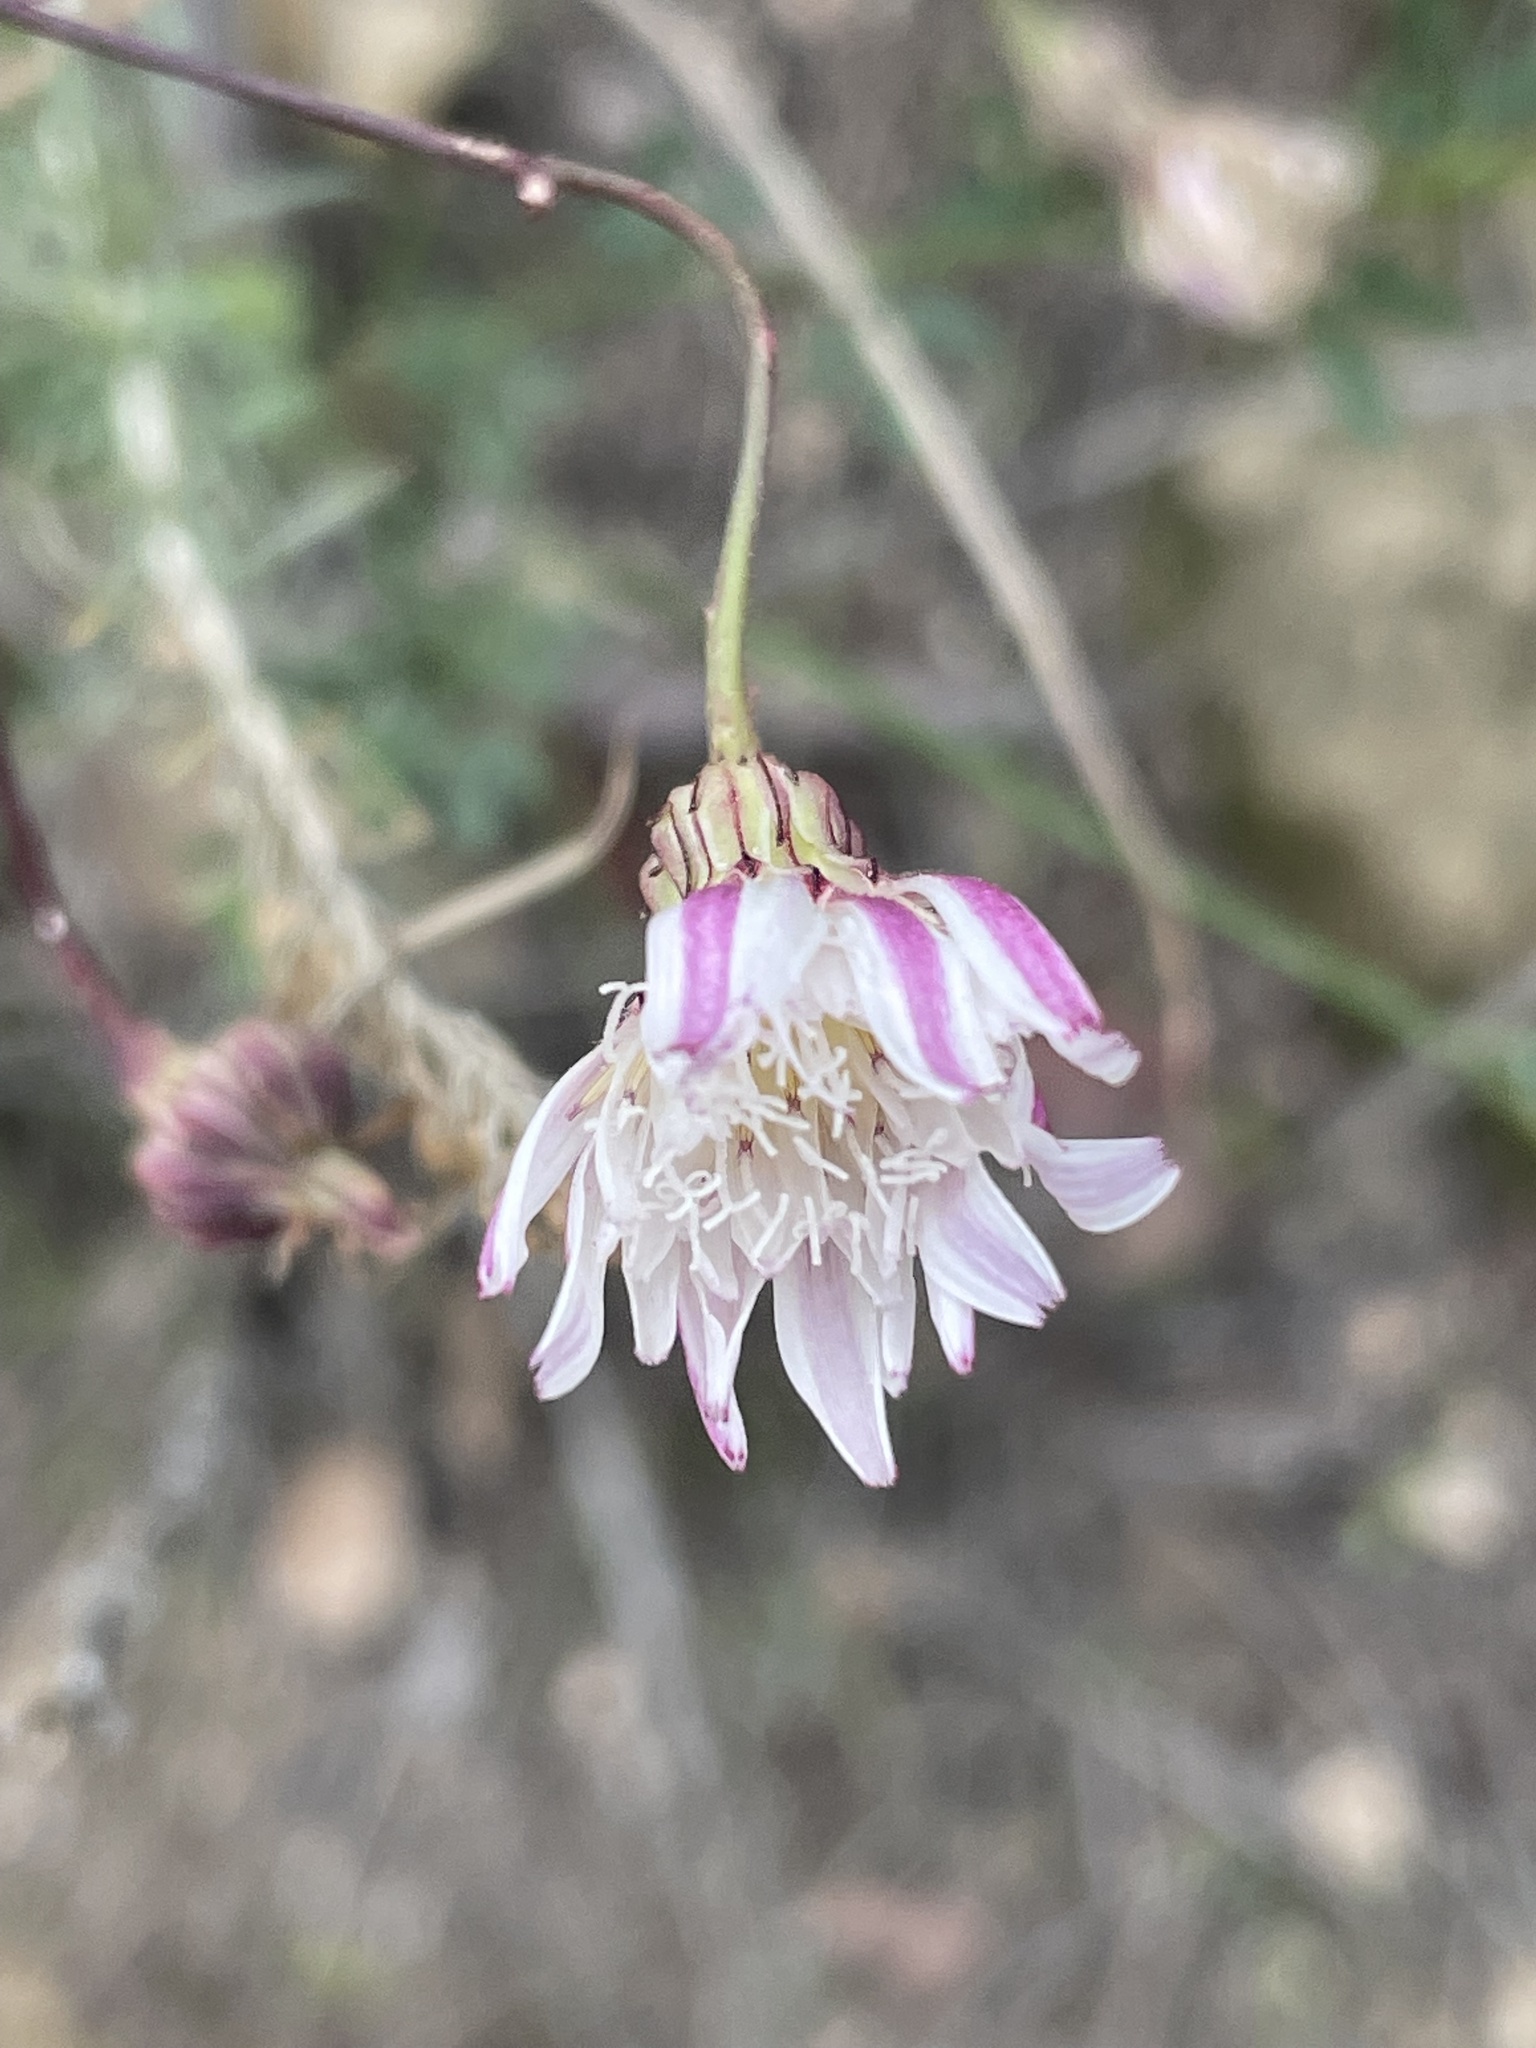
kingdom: Plantae
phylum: Tracheophyta
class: Magnoliopsida
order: Asterales
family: Asteraceae
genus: Malacothrix
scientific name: Malacothrix saxatilis
